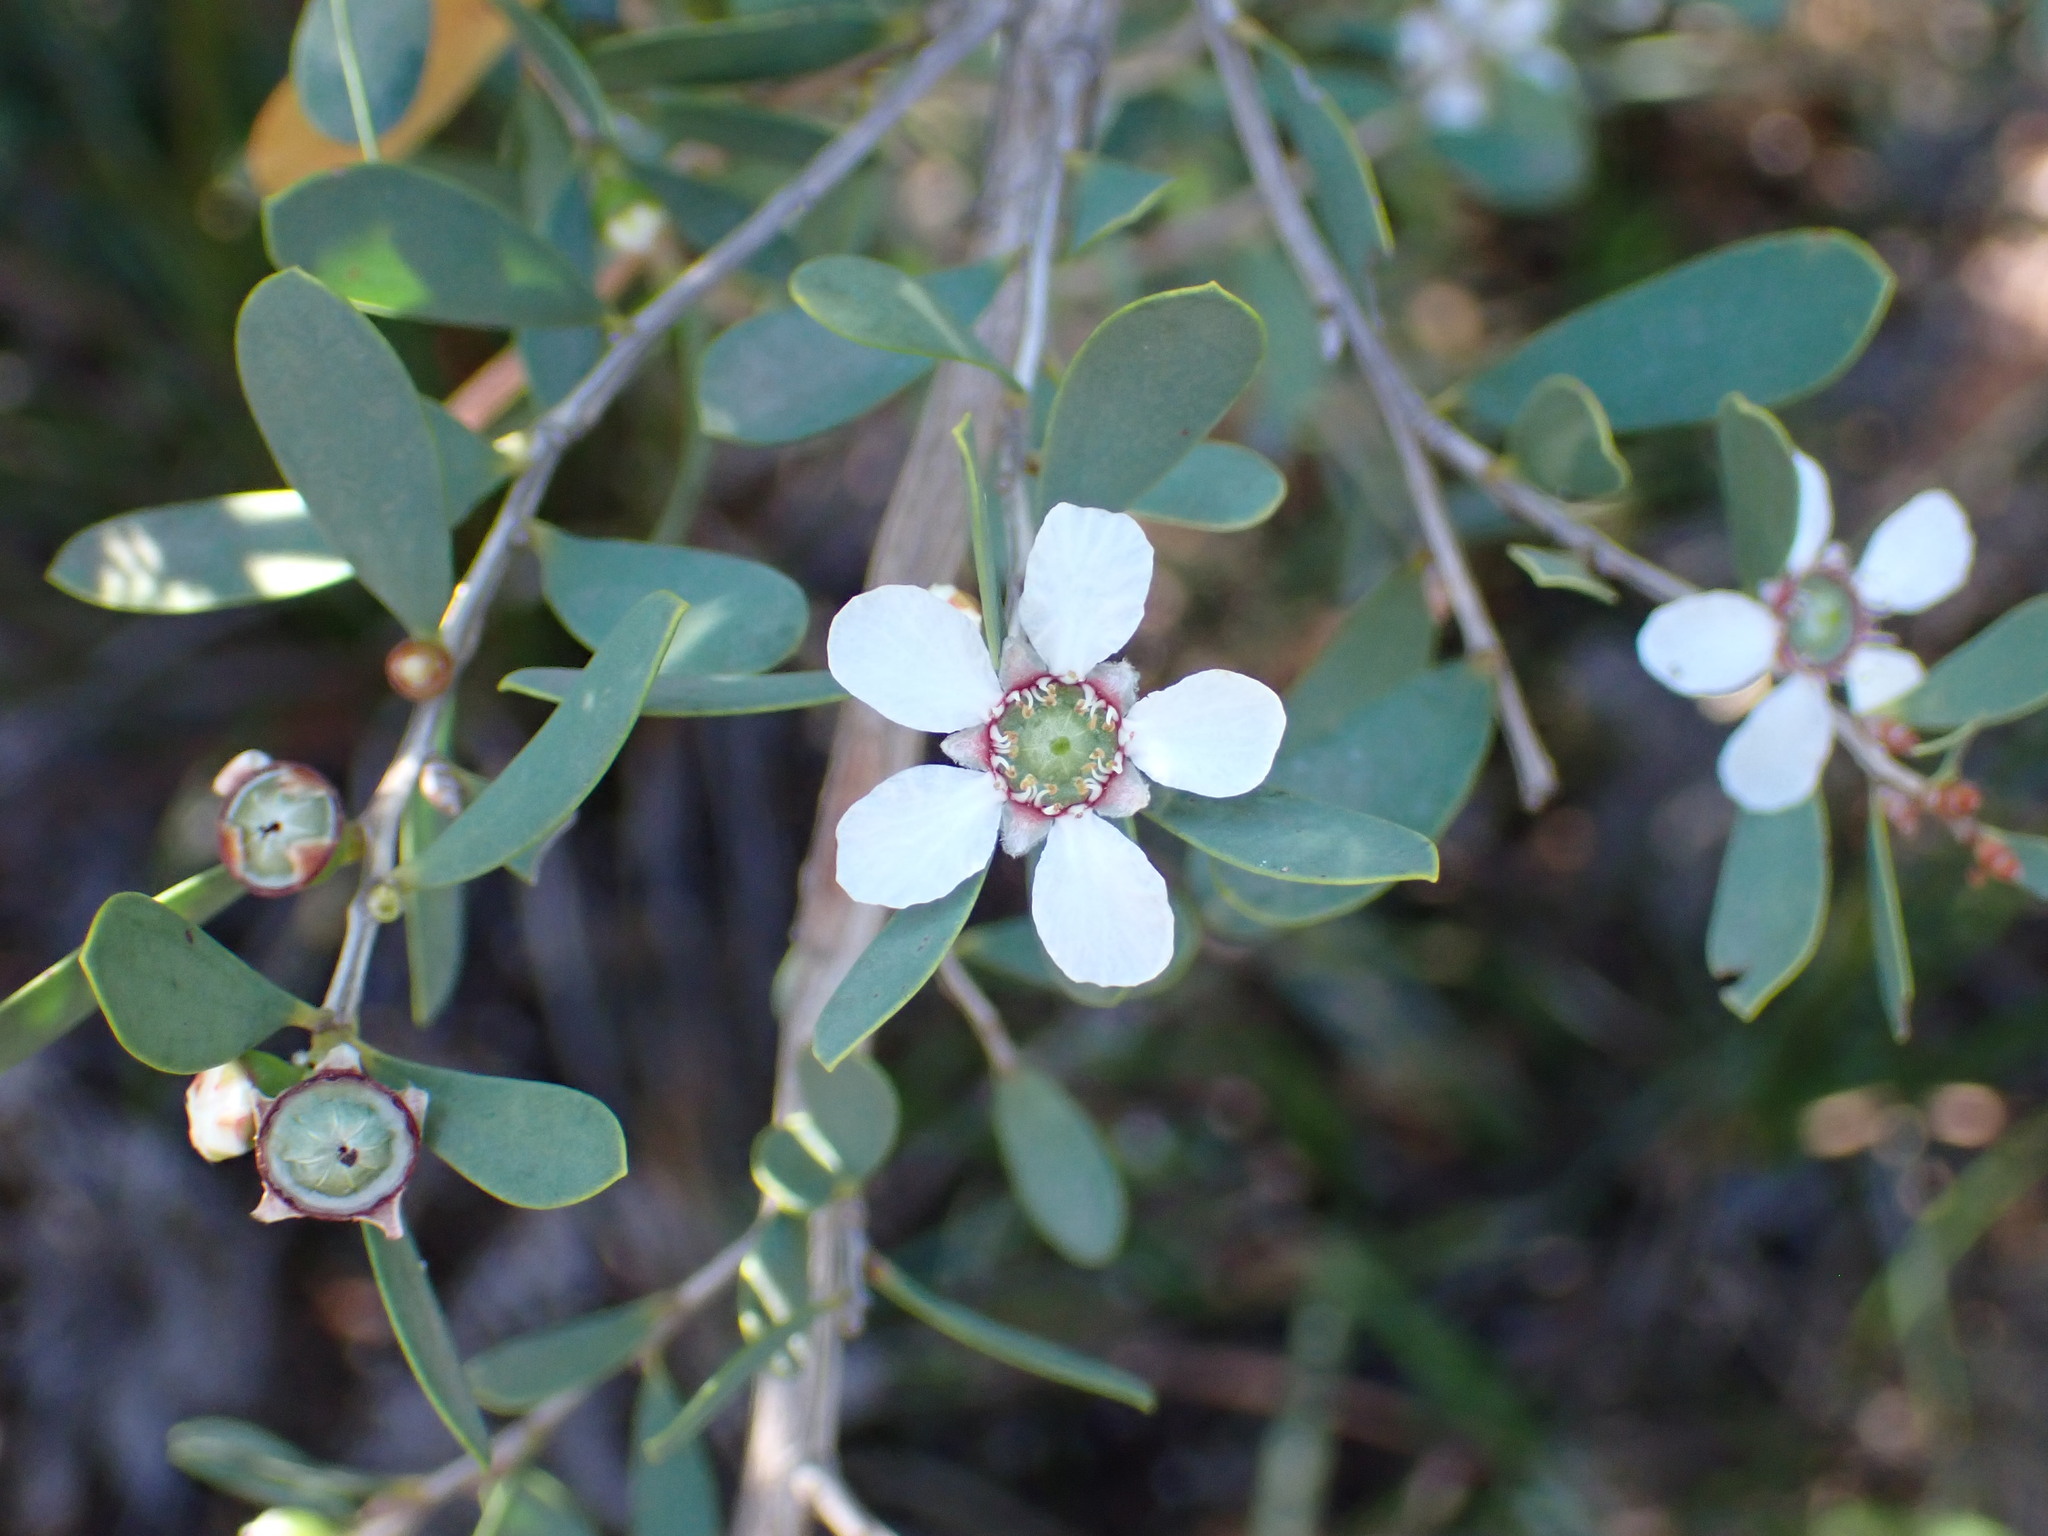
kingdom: Plantae
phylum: Tracheophyta
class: Magnoliopsida
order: Myrtales
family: Myrtaceae
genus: Leptospermum
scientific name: Leptospermum laevigatum
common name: Australian teatree
